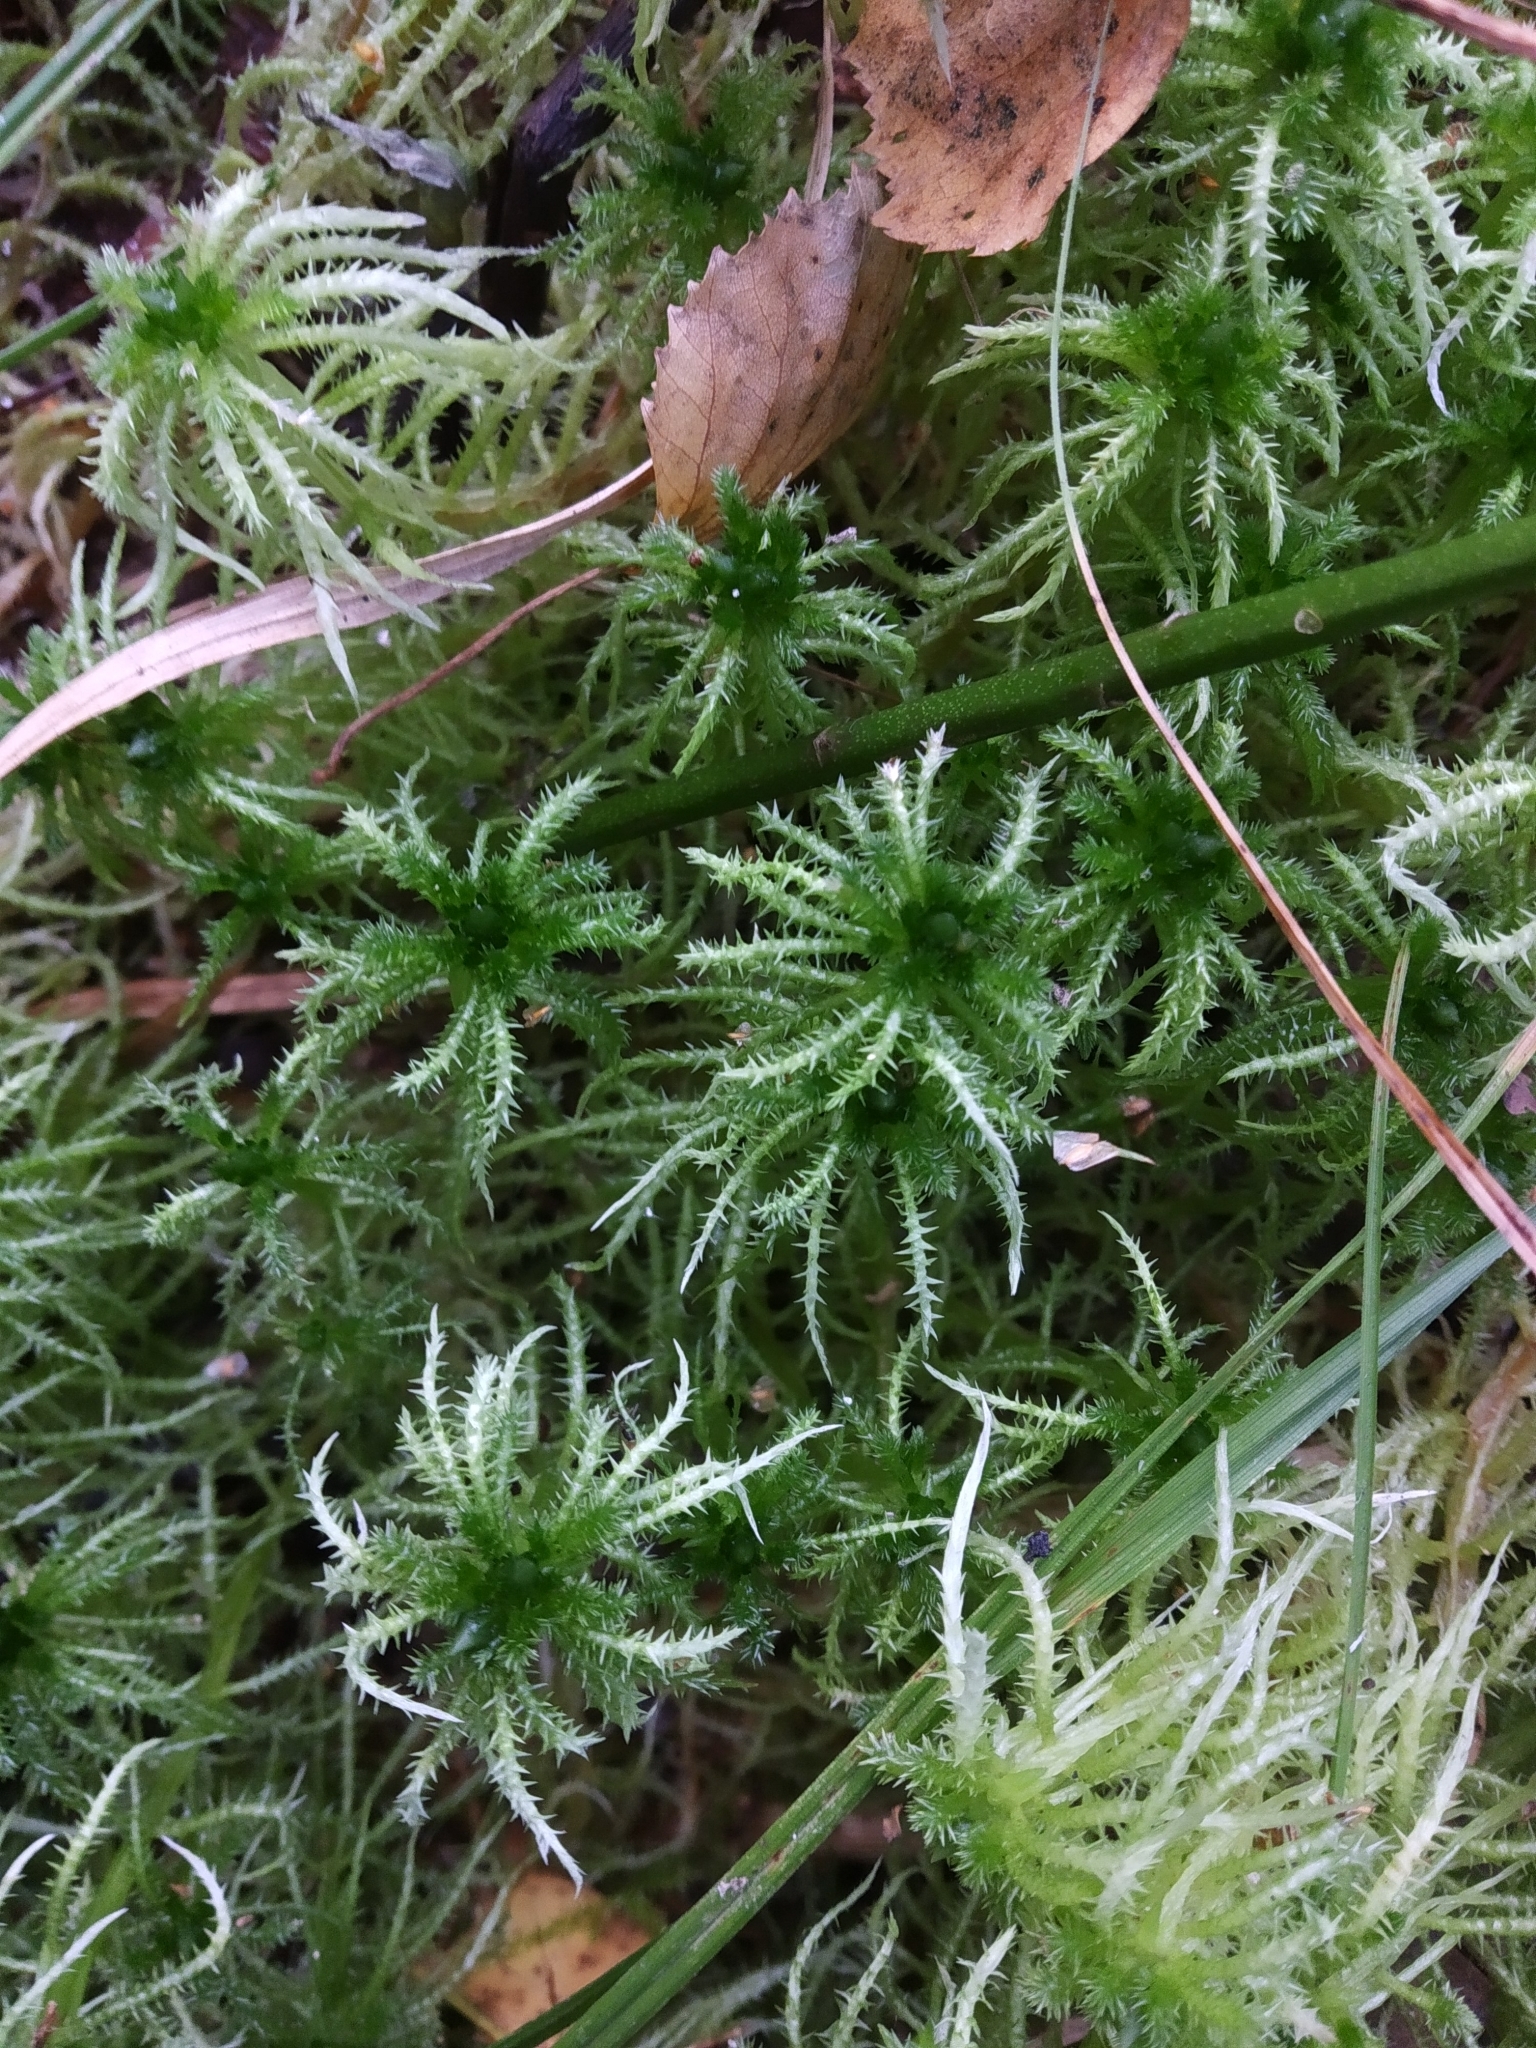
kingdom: Plantae
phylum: Bryophyta
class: Sphagnopsida
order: Sphagnales
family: Sphagnaceae
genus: Sphagnum
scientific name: Sphagnum squarrosum
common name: Shaggy peat moss
